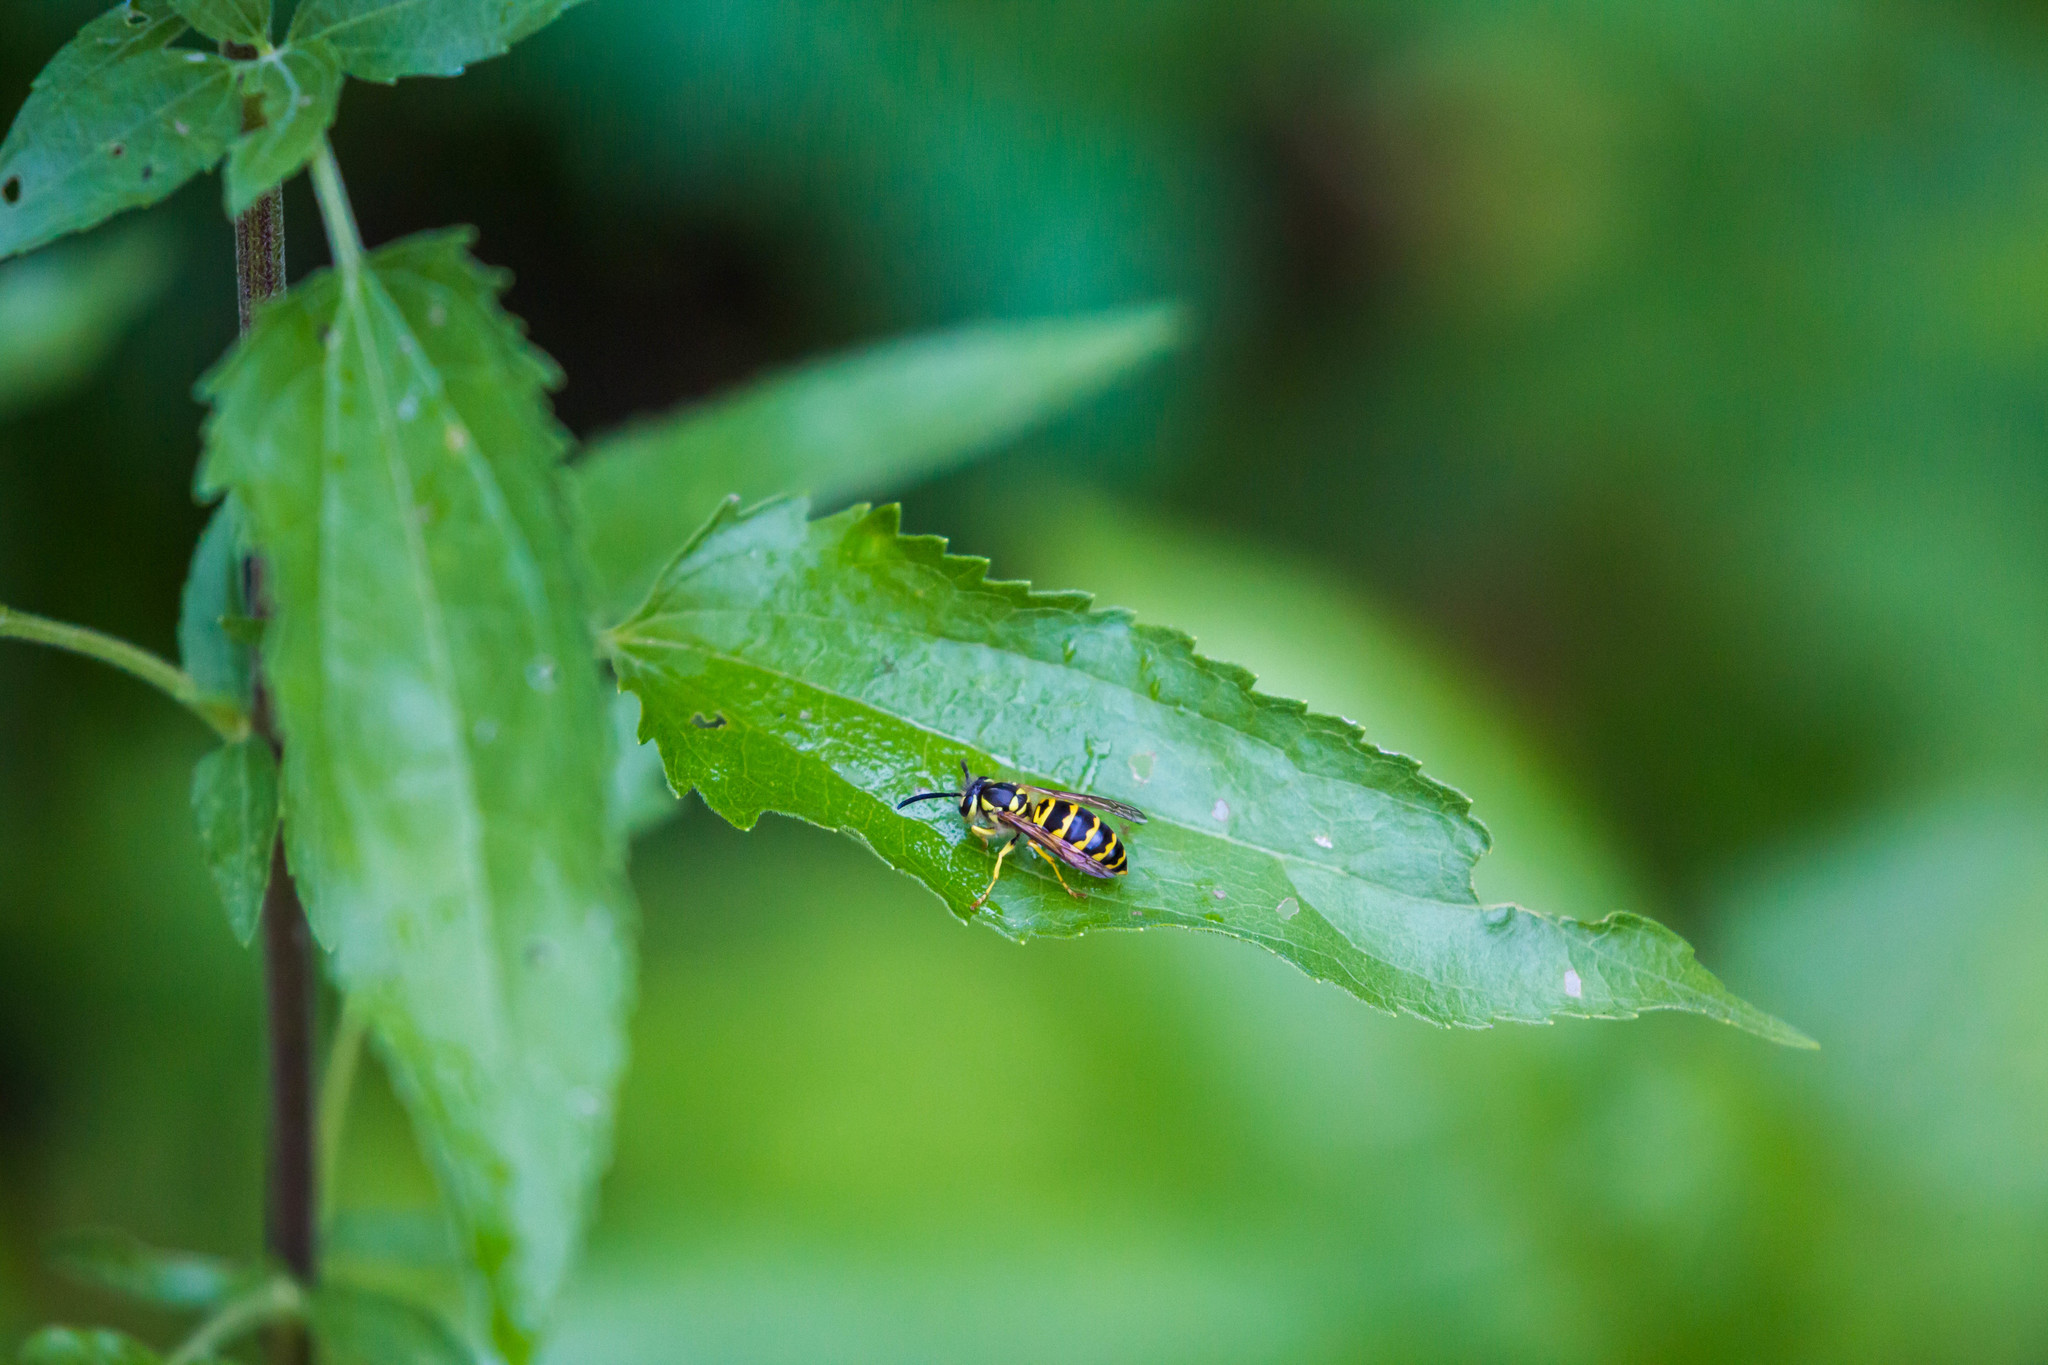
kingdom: Animalia
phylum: Arthropoda
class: Insecta
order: Hymenoptera
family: Vespidae
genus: Vespula
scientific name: Vespula maculifrons
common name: Eastern yellowjacket
